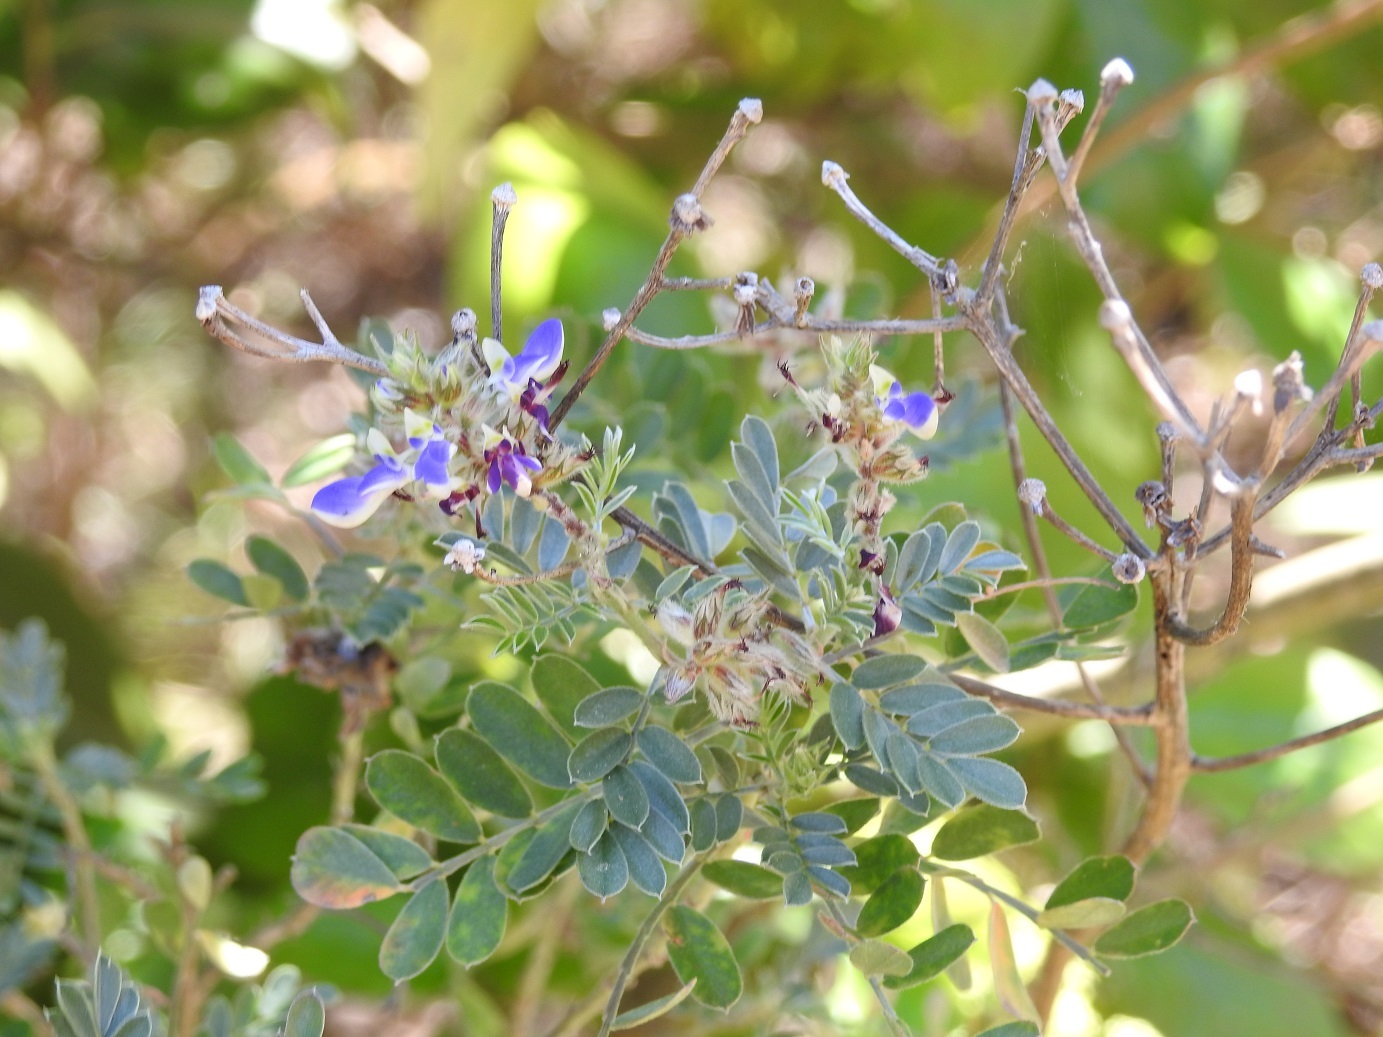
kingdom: Plantae
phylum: Tracheophyta
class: Magnoliopsida
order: Fabales
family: Fabaceae
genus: Marina
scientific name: Marina spiciformis
